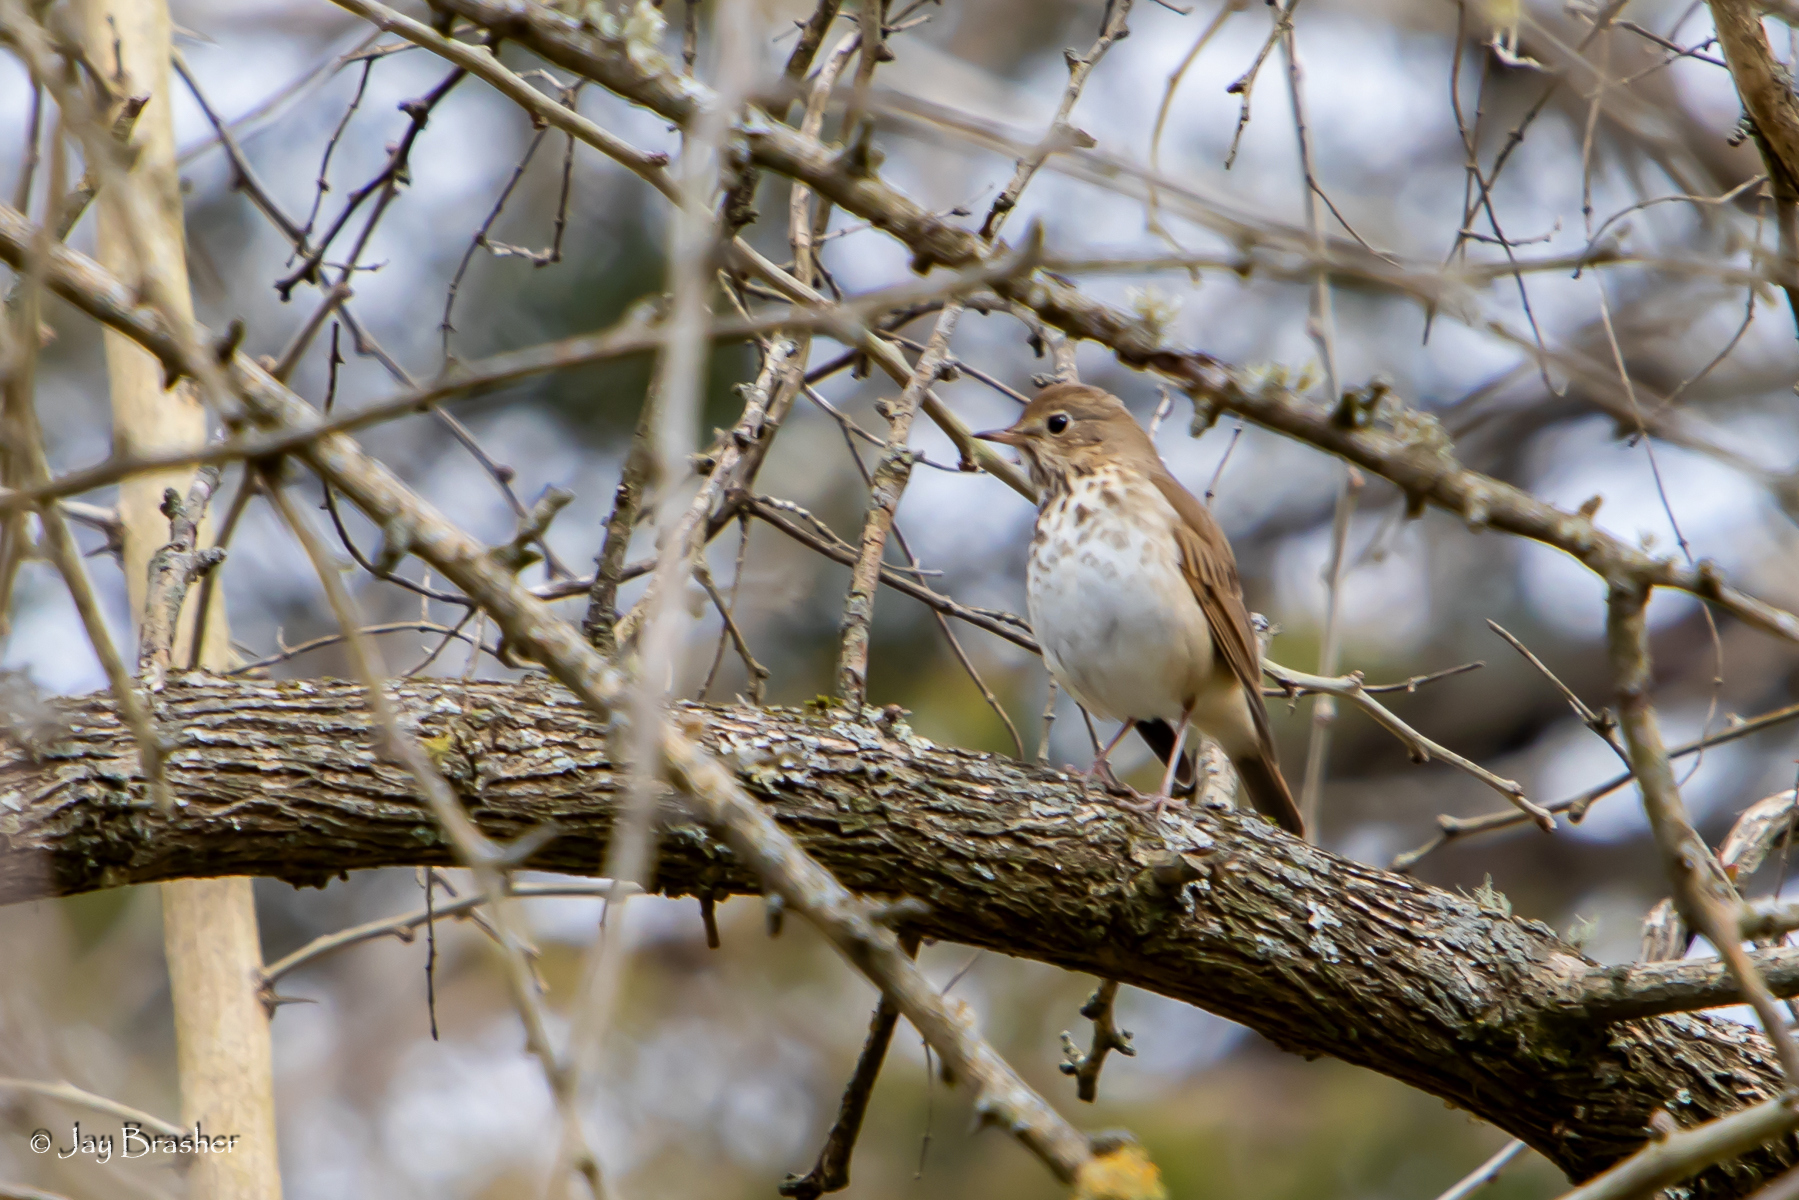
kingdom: Animalia
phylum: Chordata
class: Aves
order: Passeriformes
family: Turdidae
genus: Catharus
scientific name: Catharus guttatus
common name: Hermit thrush
